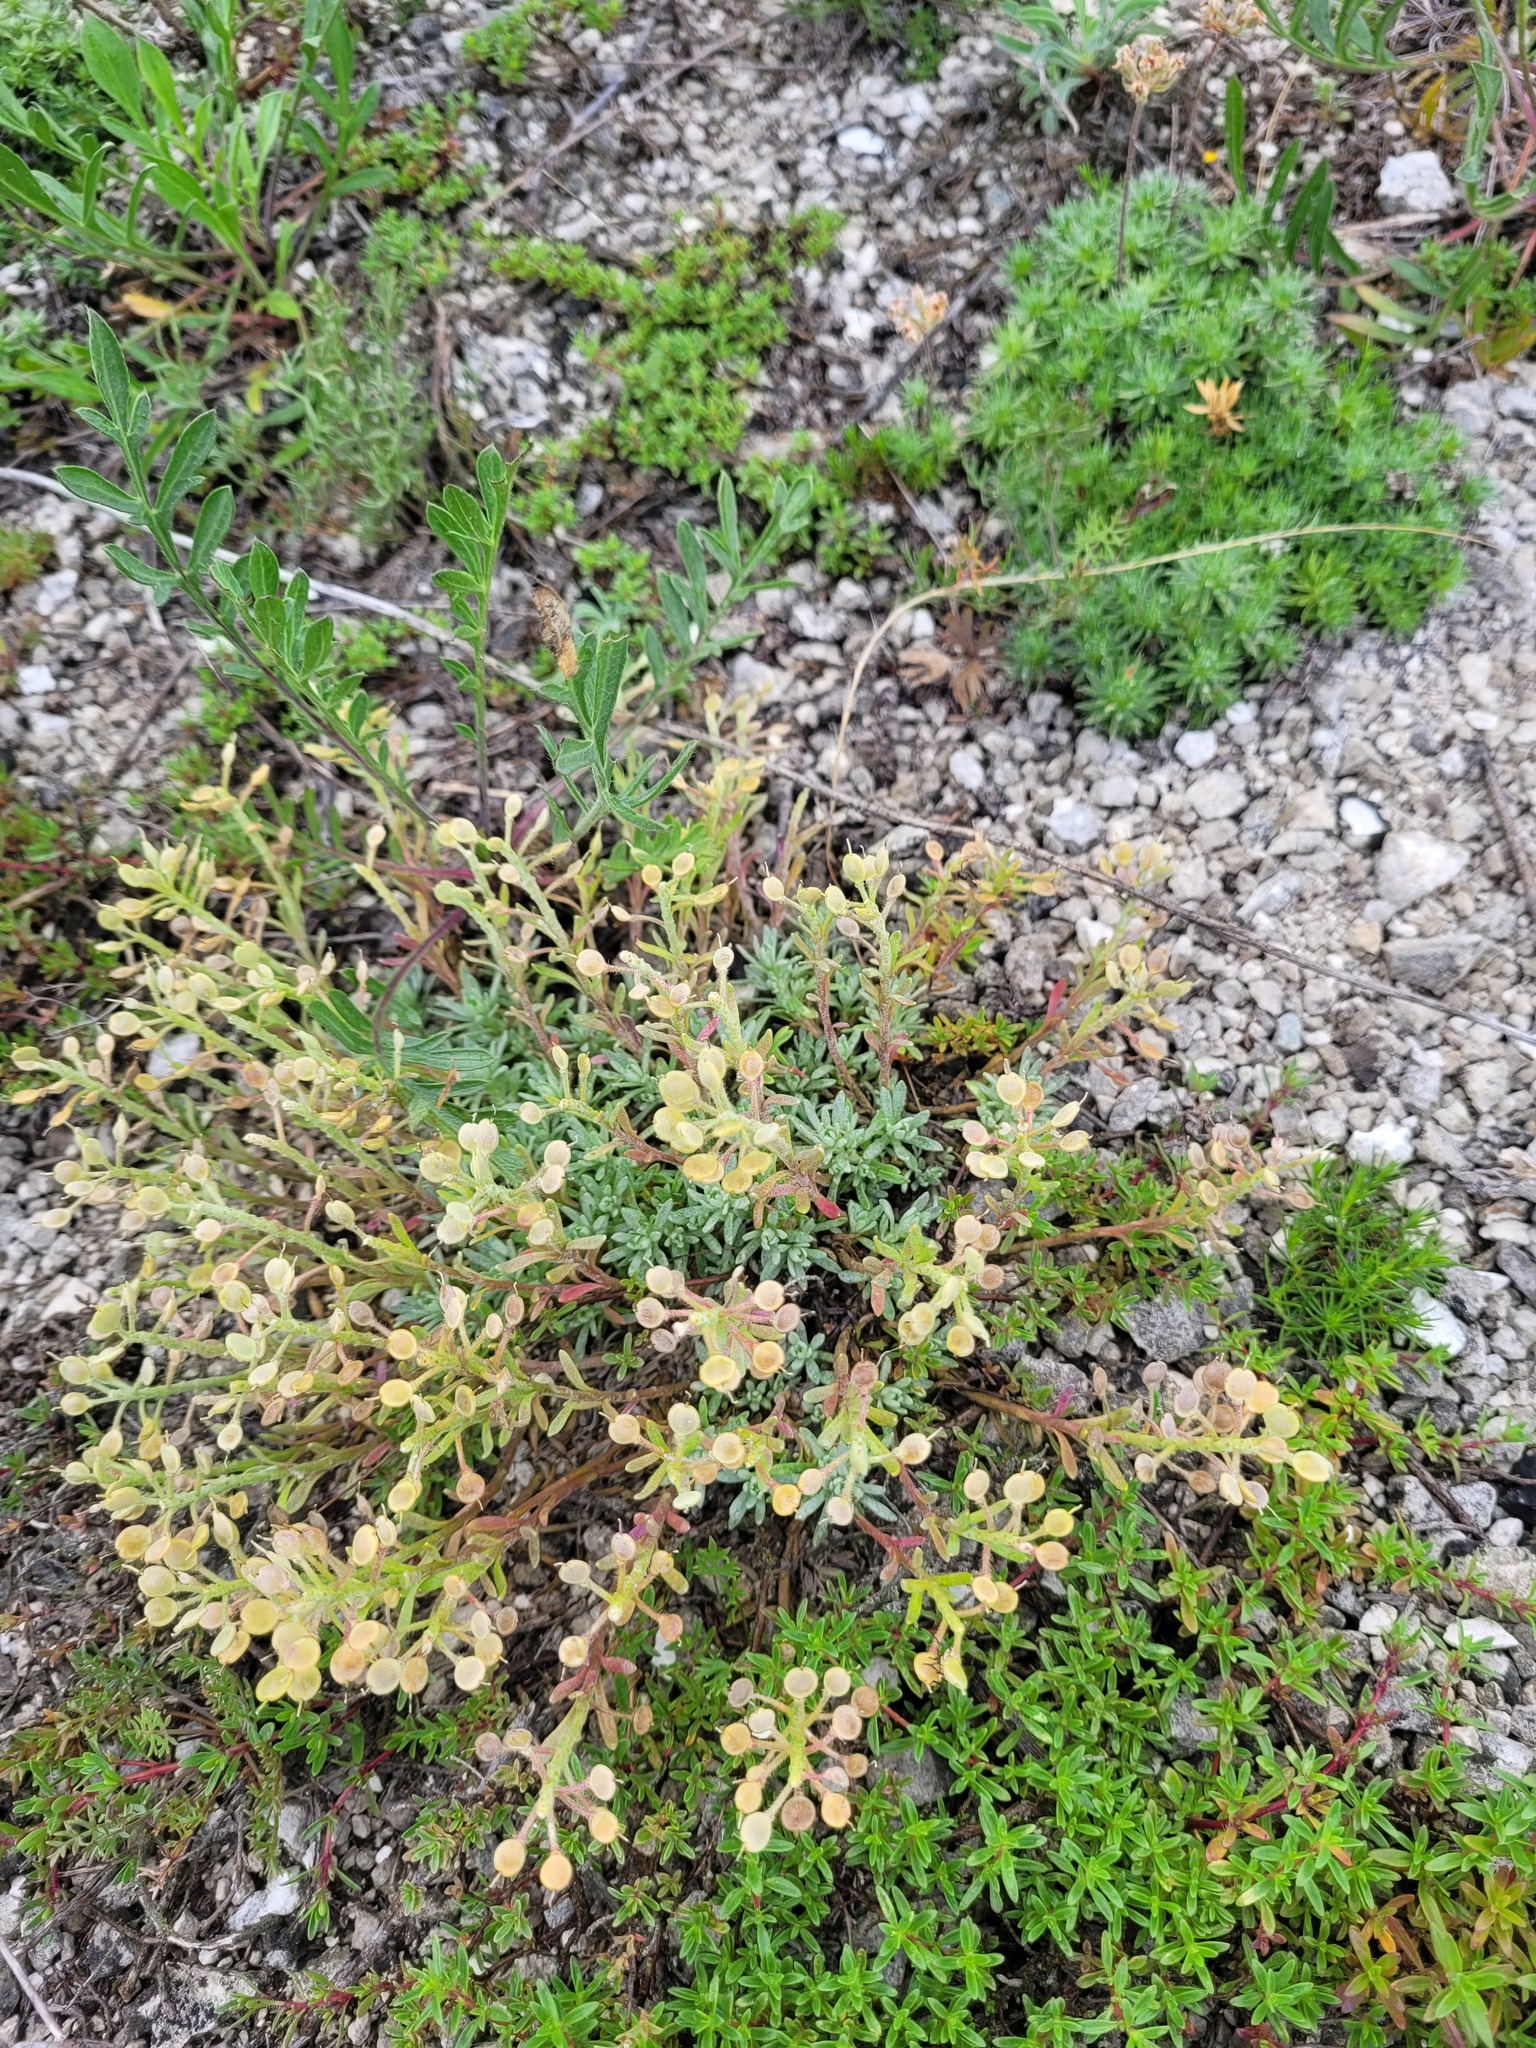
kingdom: Plantae
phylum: Tracheophyta
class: Magnoliopsida
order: Brassicales
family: Brassicaceae
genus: Alyssum
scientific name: Alyssum lenense
